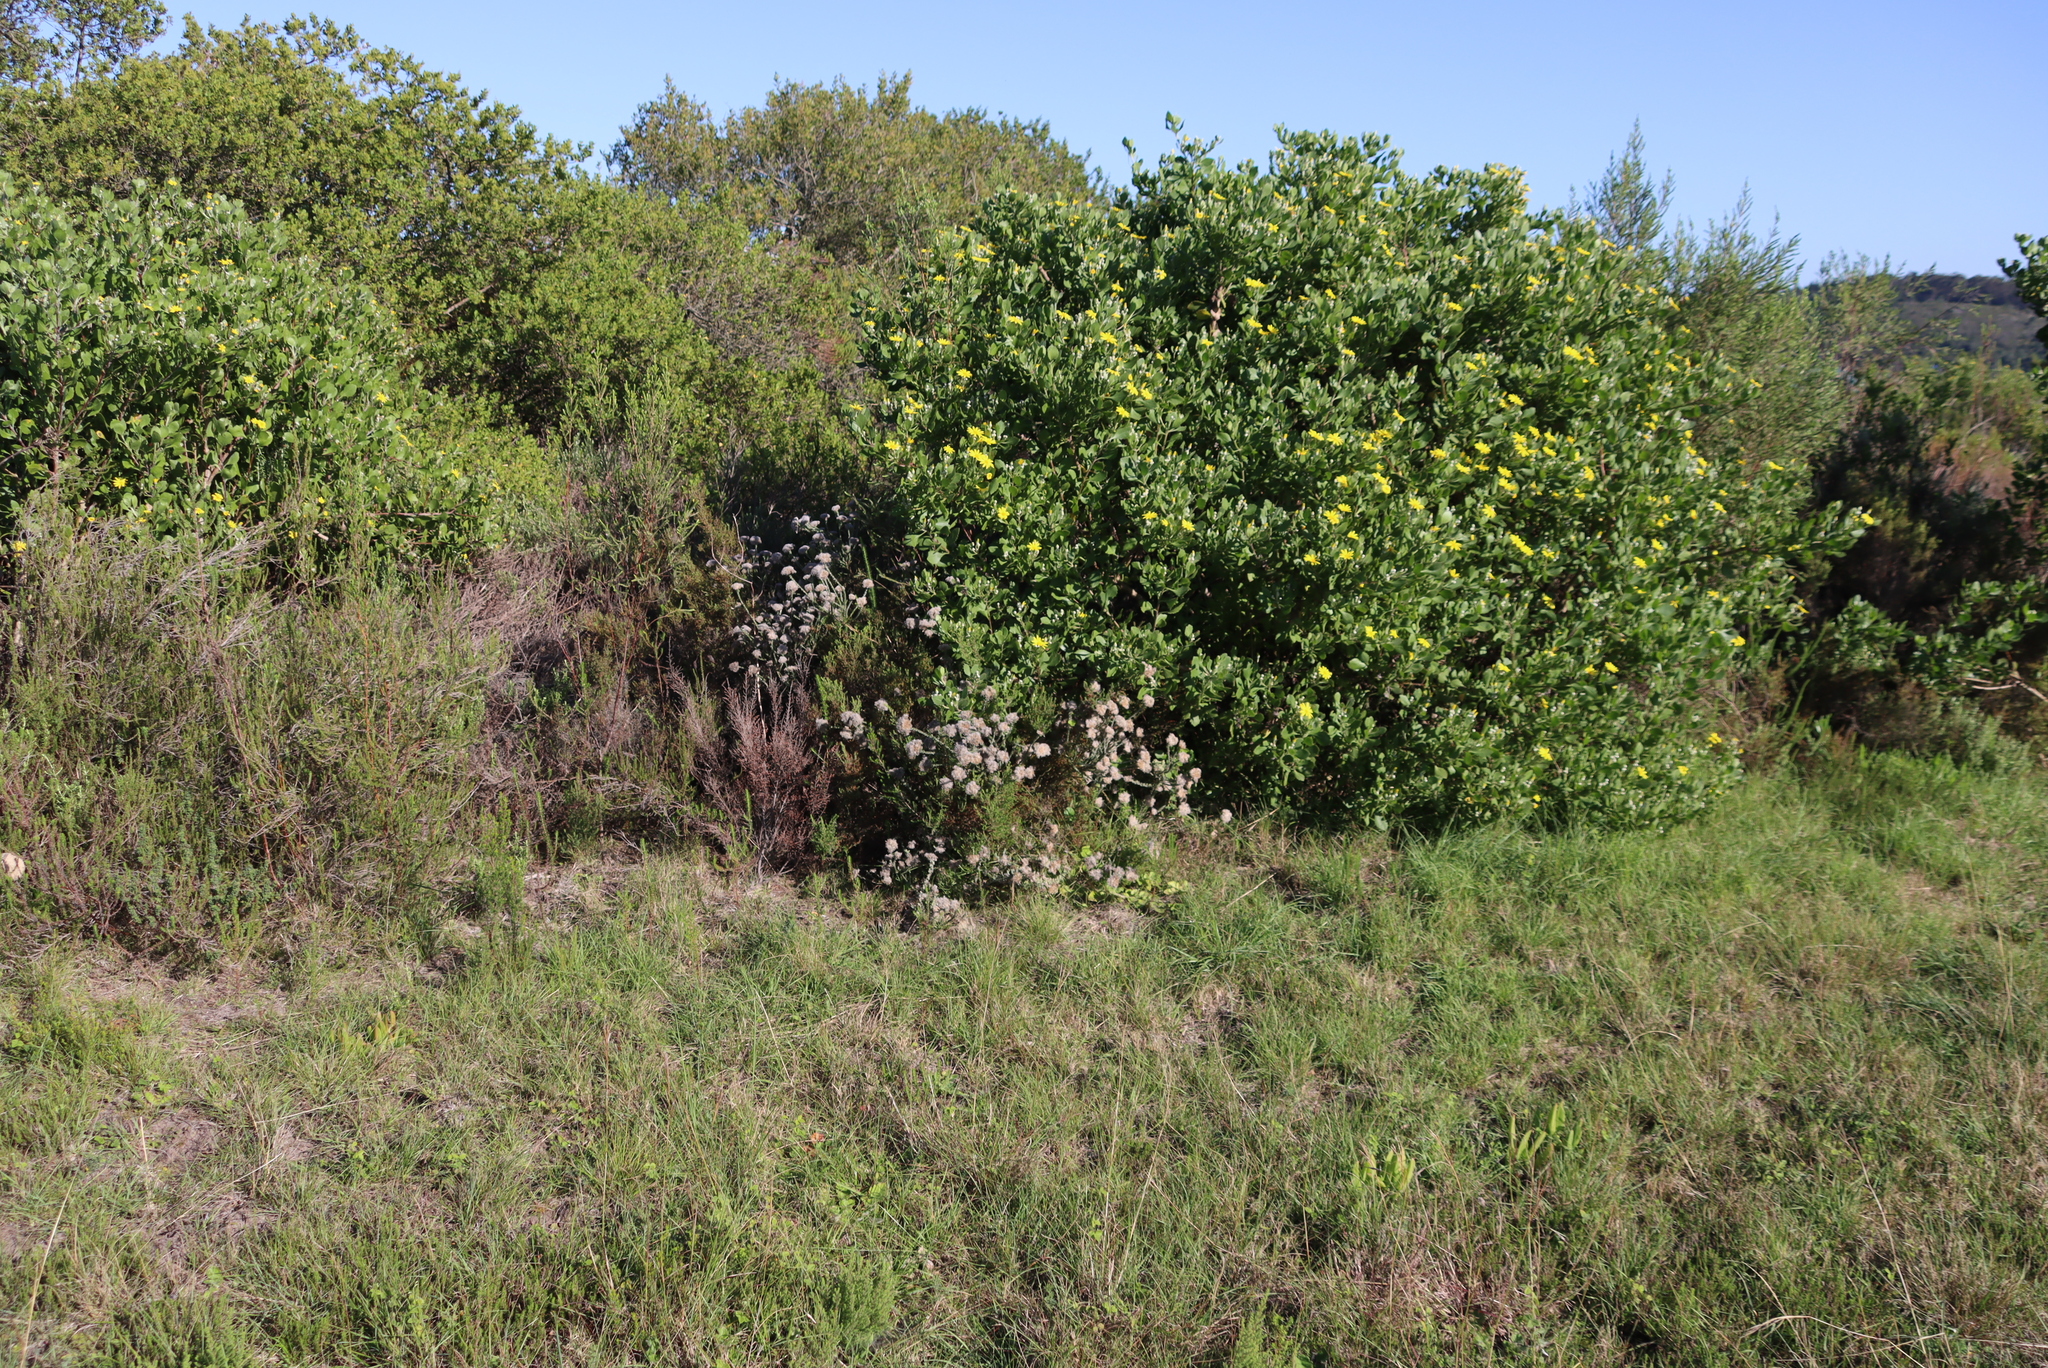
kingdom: Plantae
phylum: Tracheophyta
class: Magnoliopsida
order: Asterales
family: Asteraceae
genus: Osteospermum
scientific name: Osteospermum moniliferum
